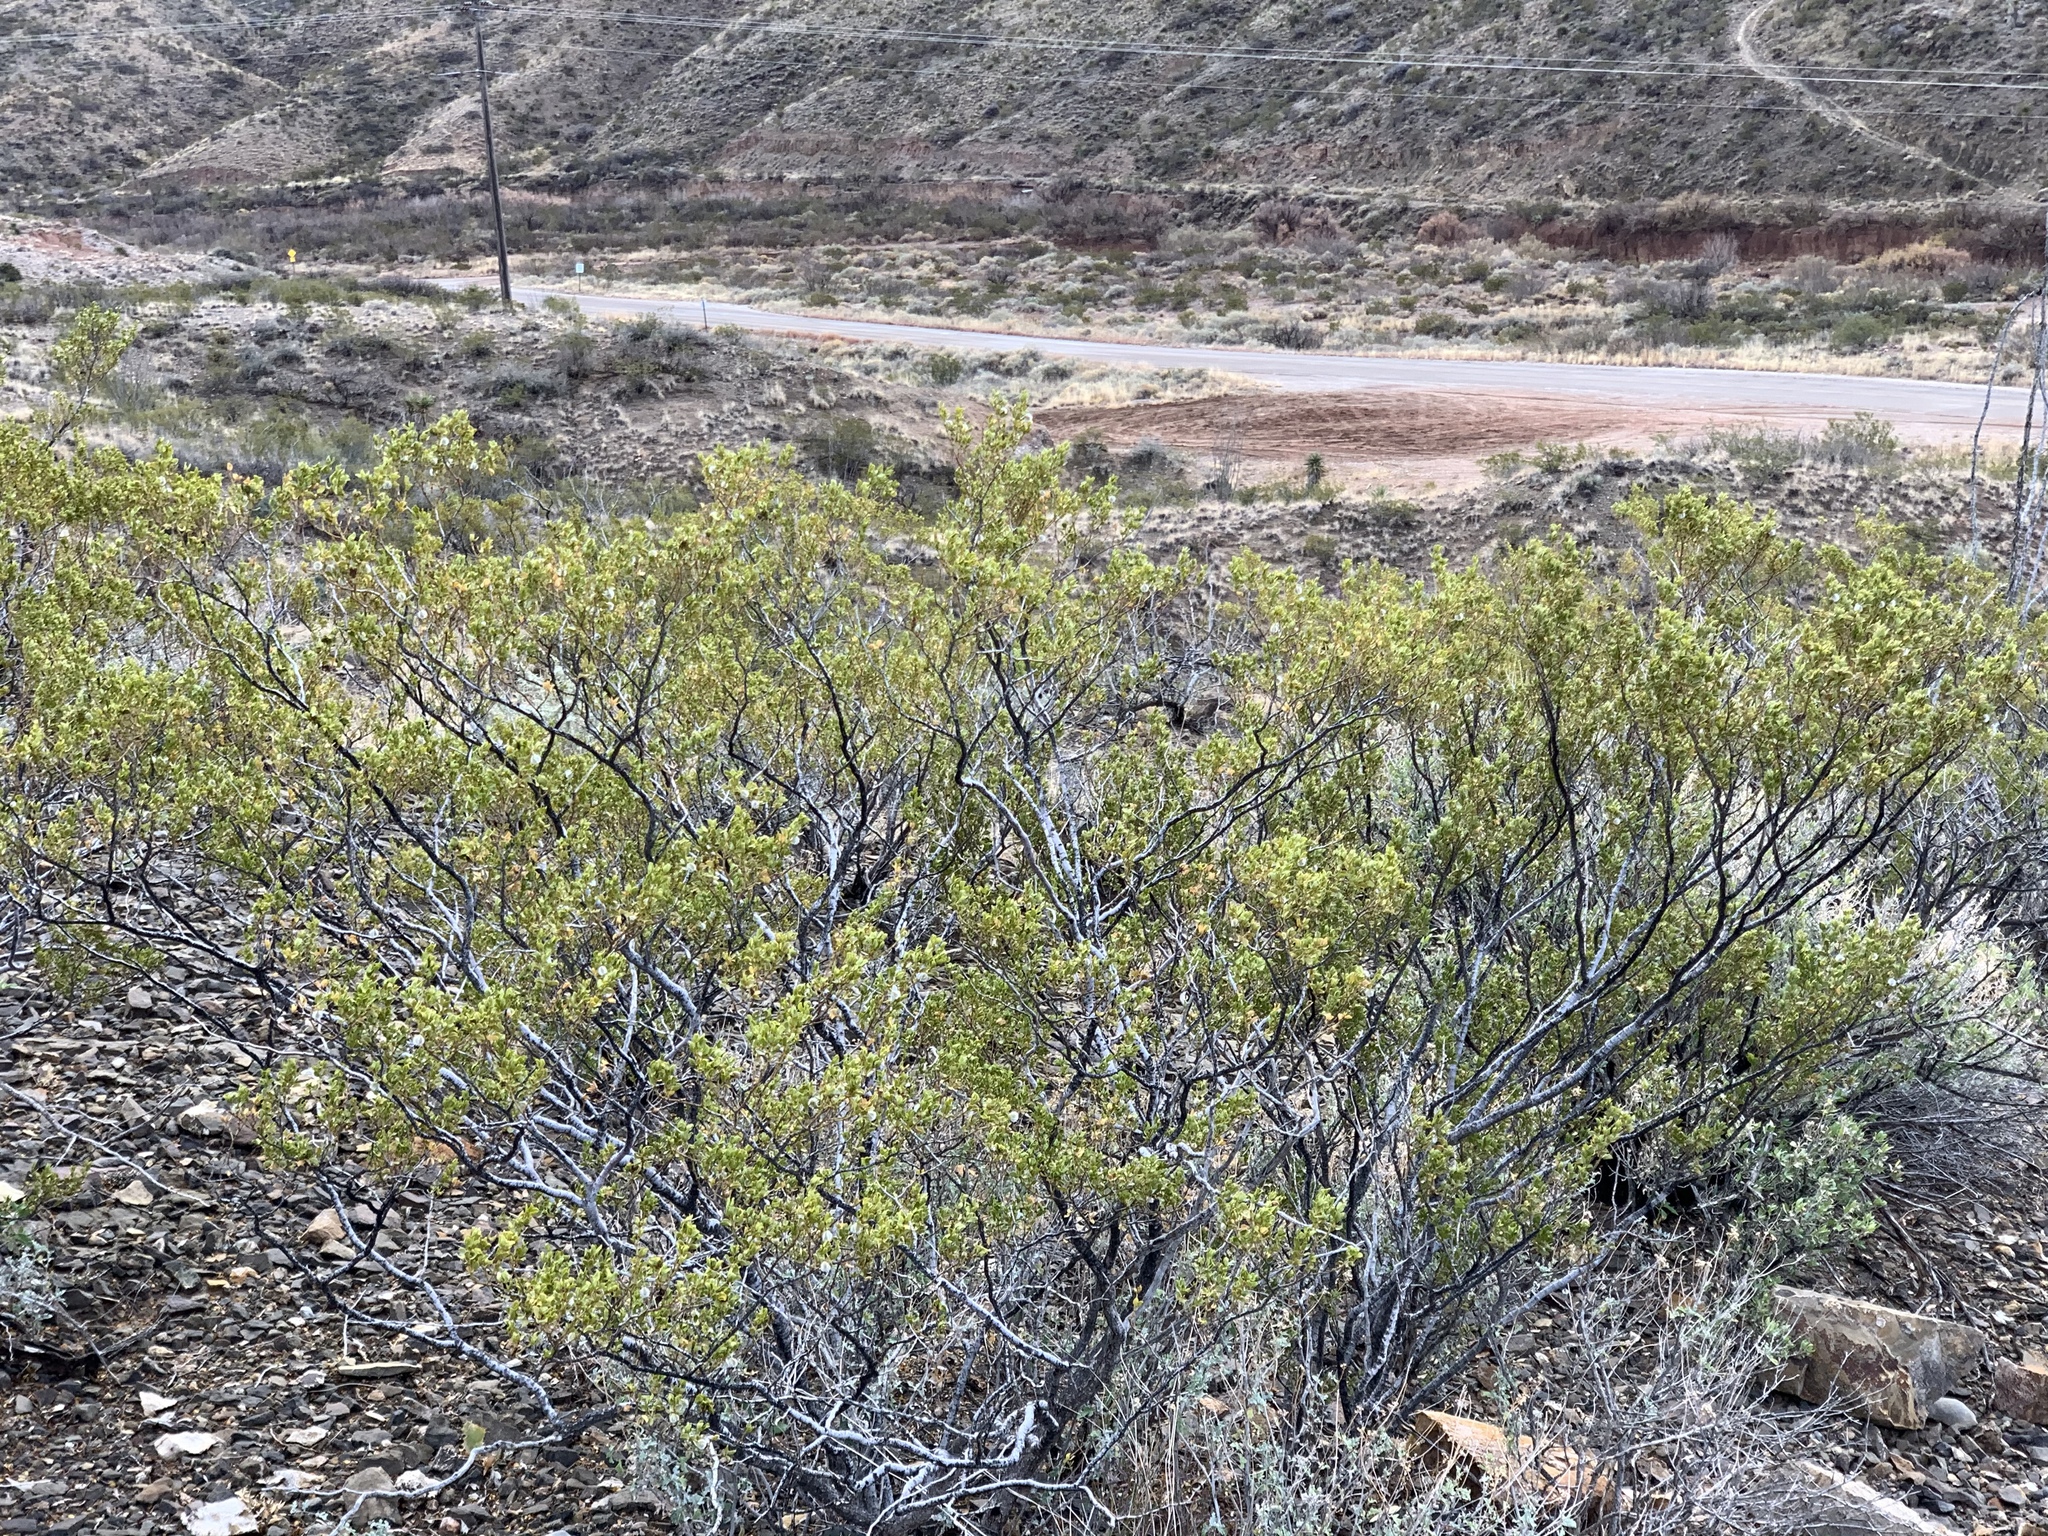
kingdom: Plantae
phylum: Tracheophyta
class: Magnoliopsida
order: Zygophyllales
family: Zygophyllaceae
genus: Larrea
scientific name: Larrea tridentata
